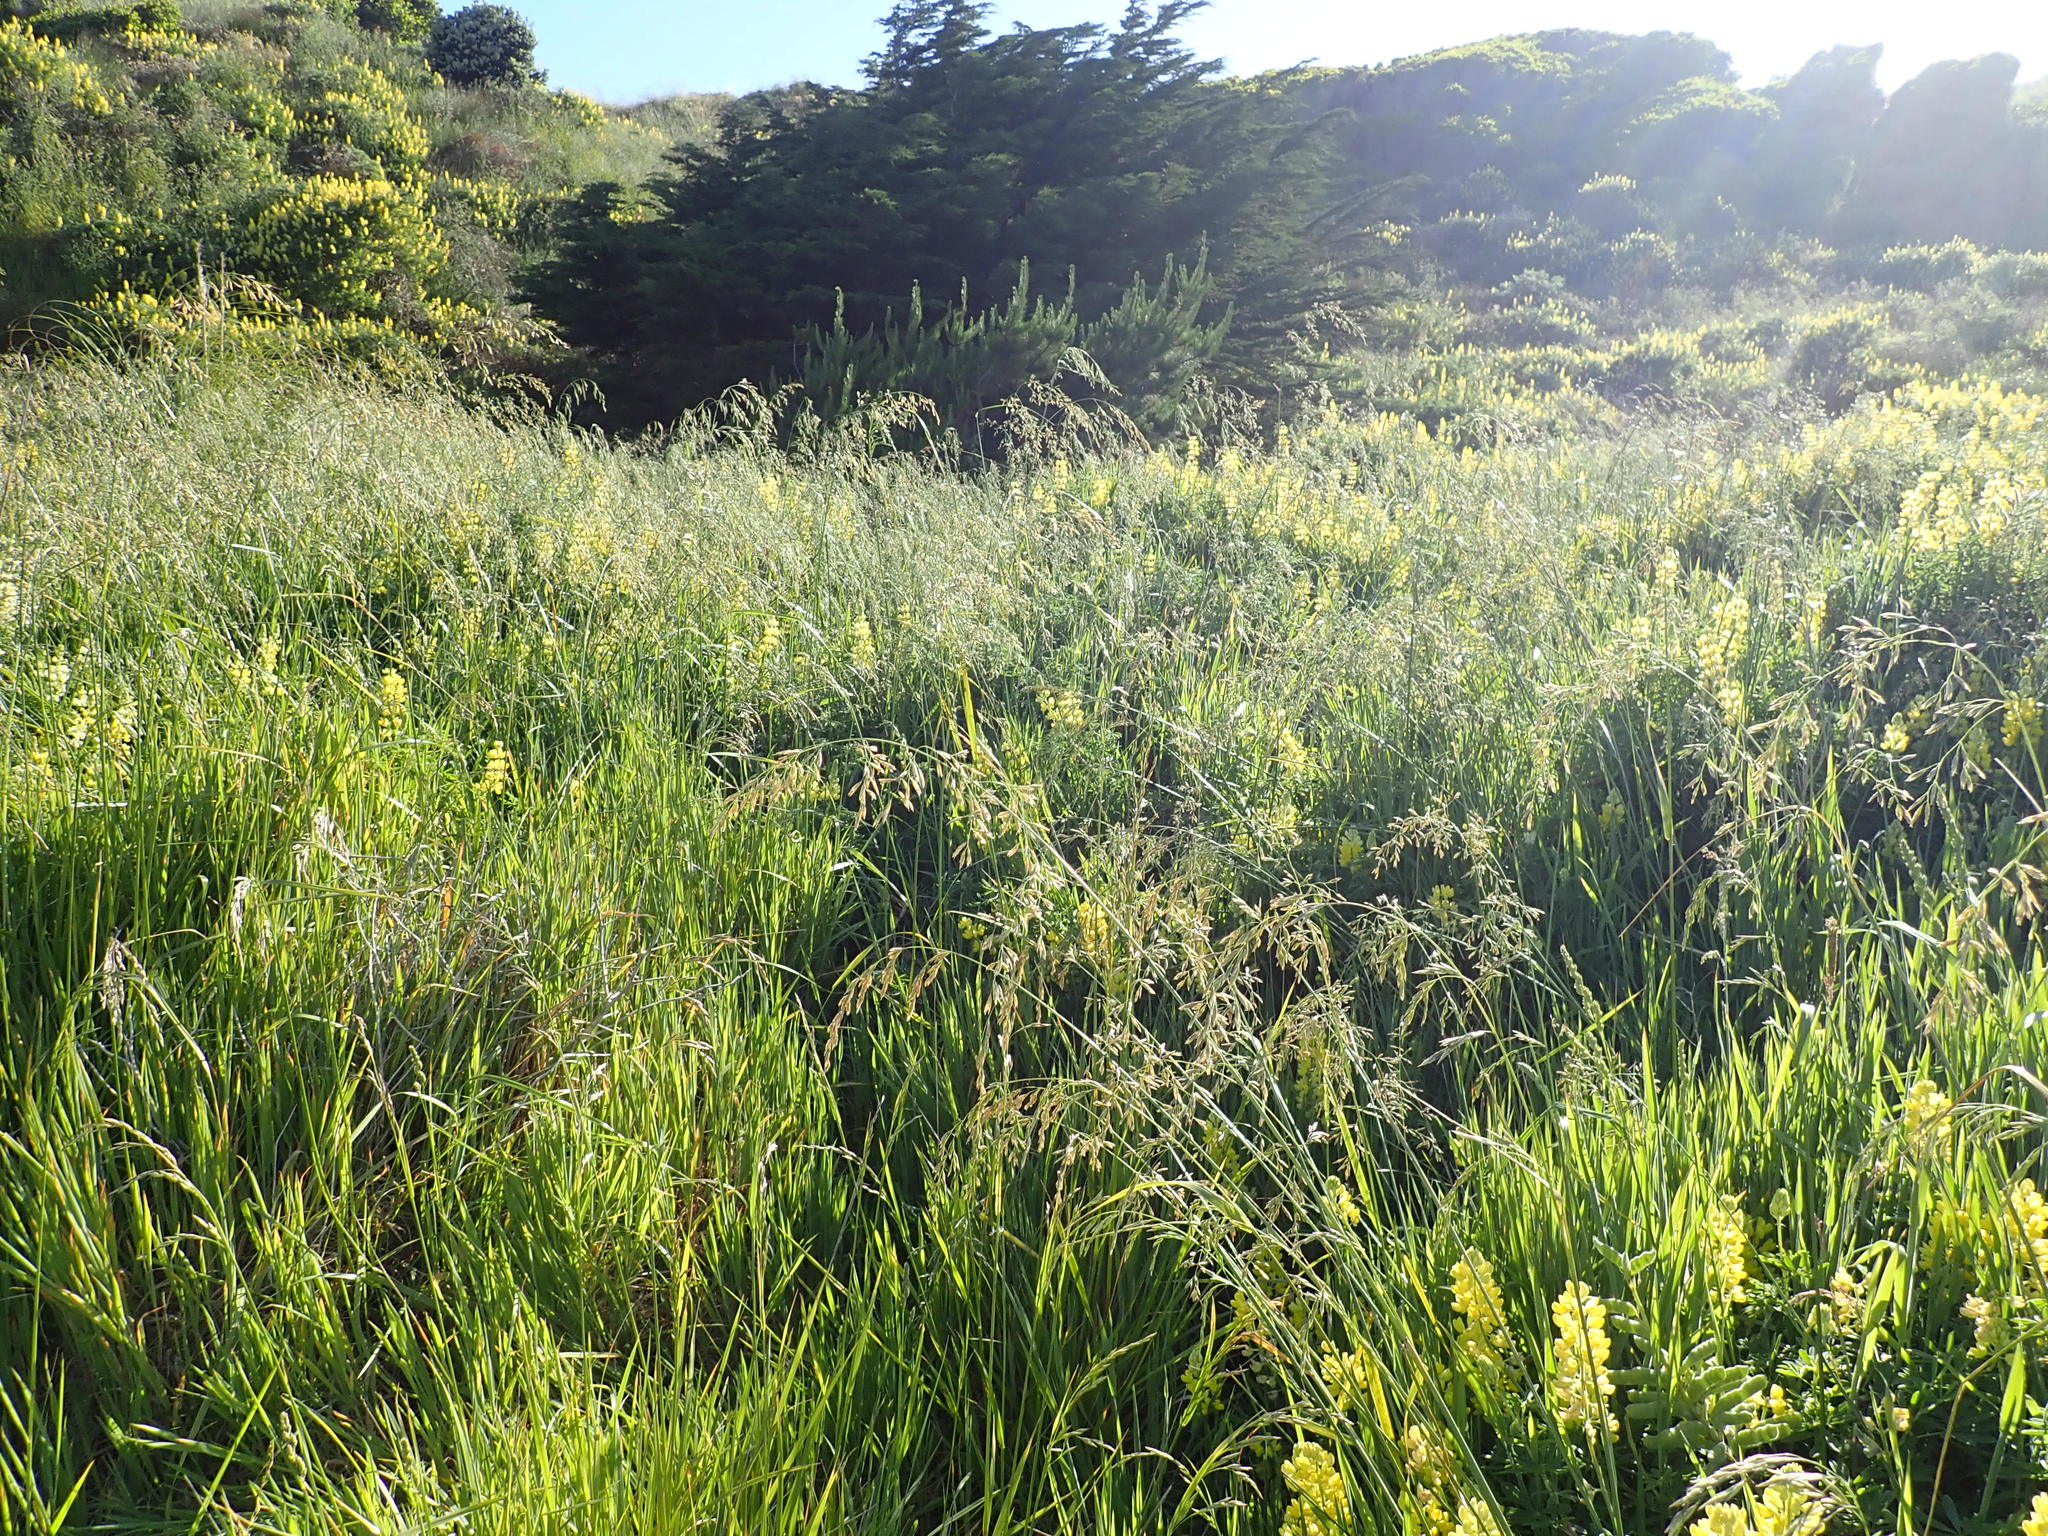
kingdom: Plantae
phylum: Tracheophyta
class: Liliopsida
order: Poales
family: Poaceae
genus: Lolium
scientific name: Lolium arundinaceum
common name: Reed fescue
